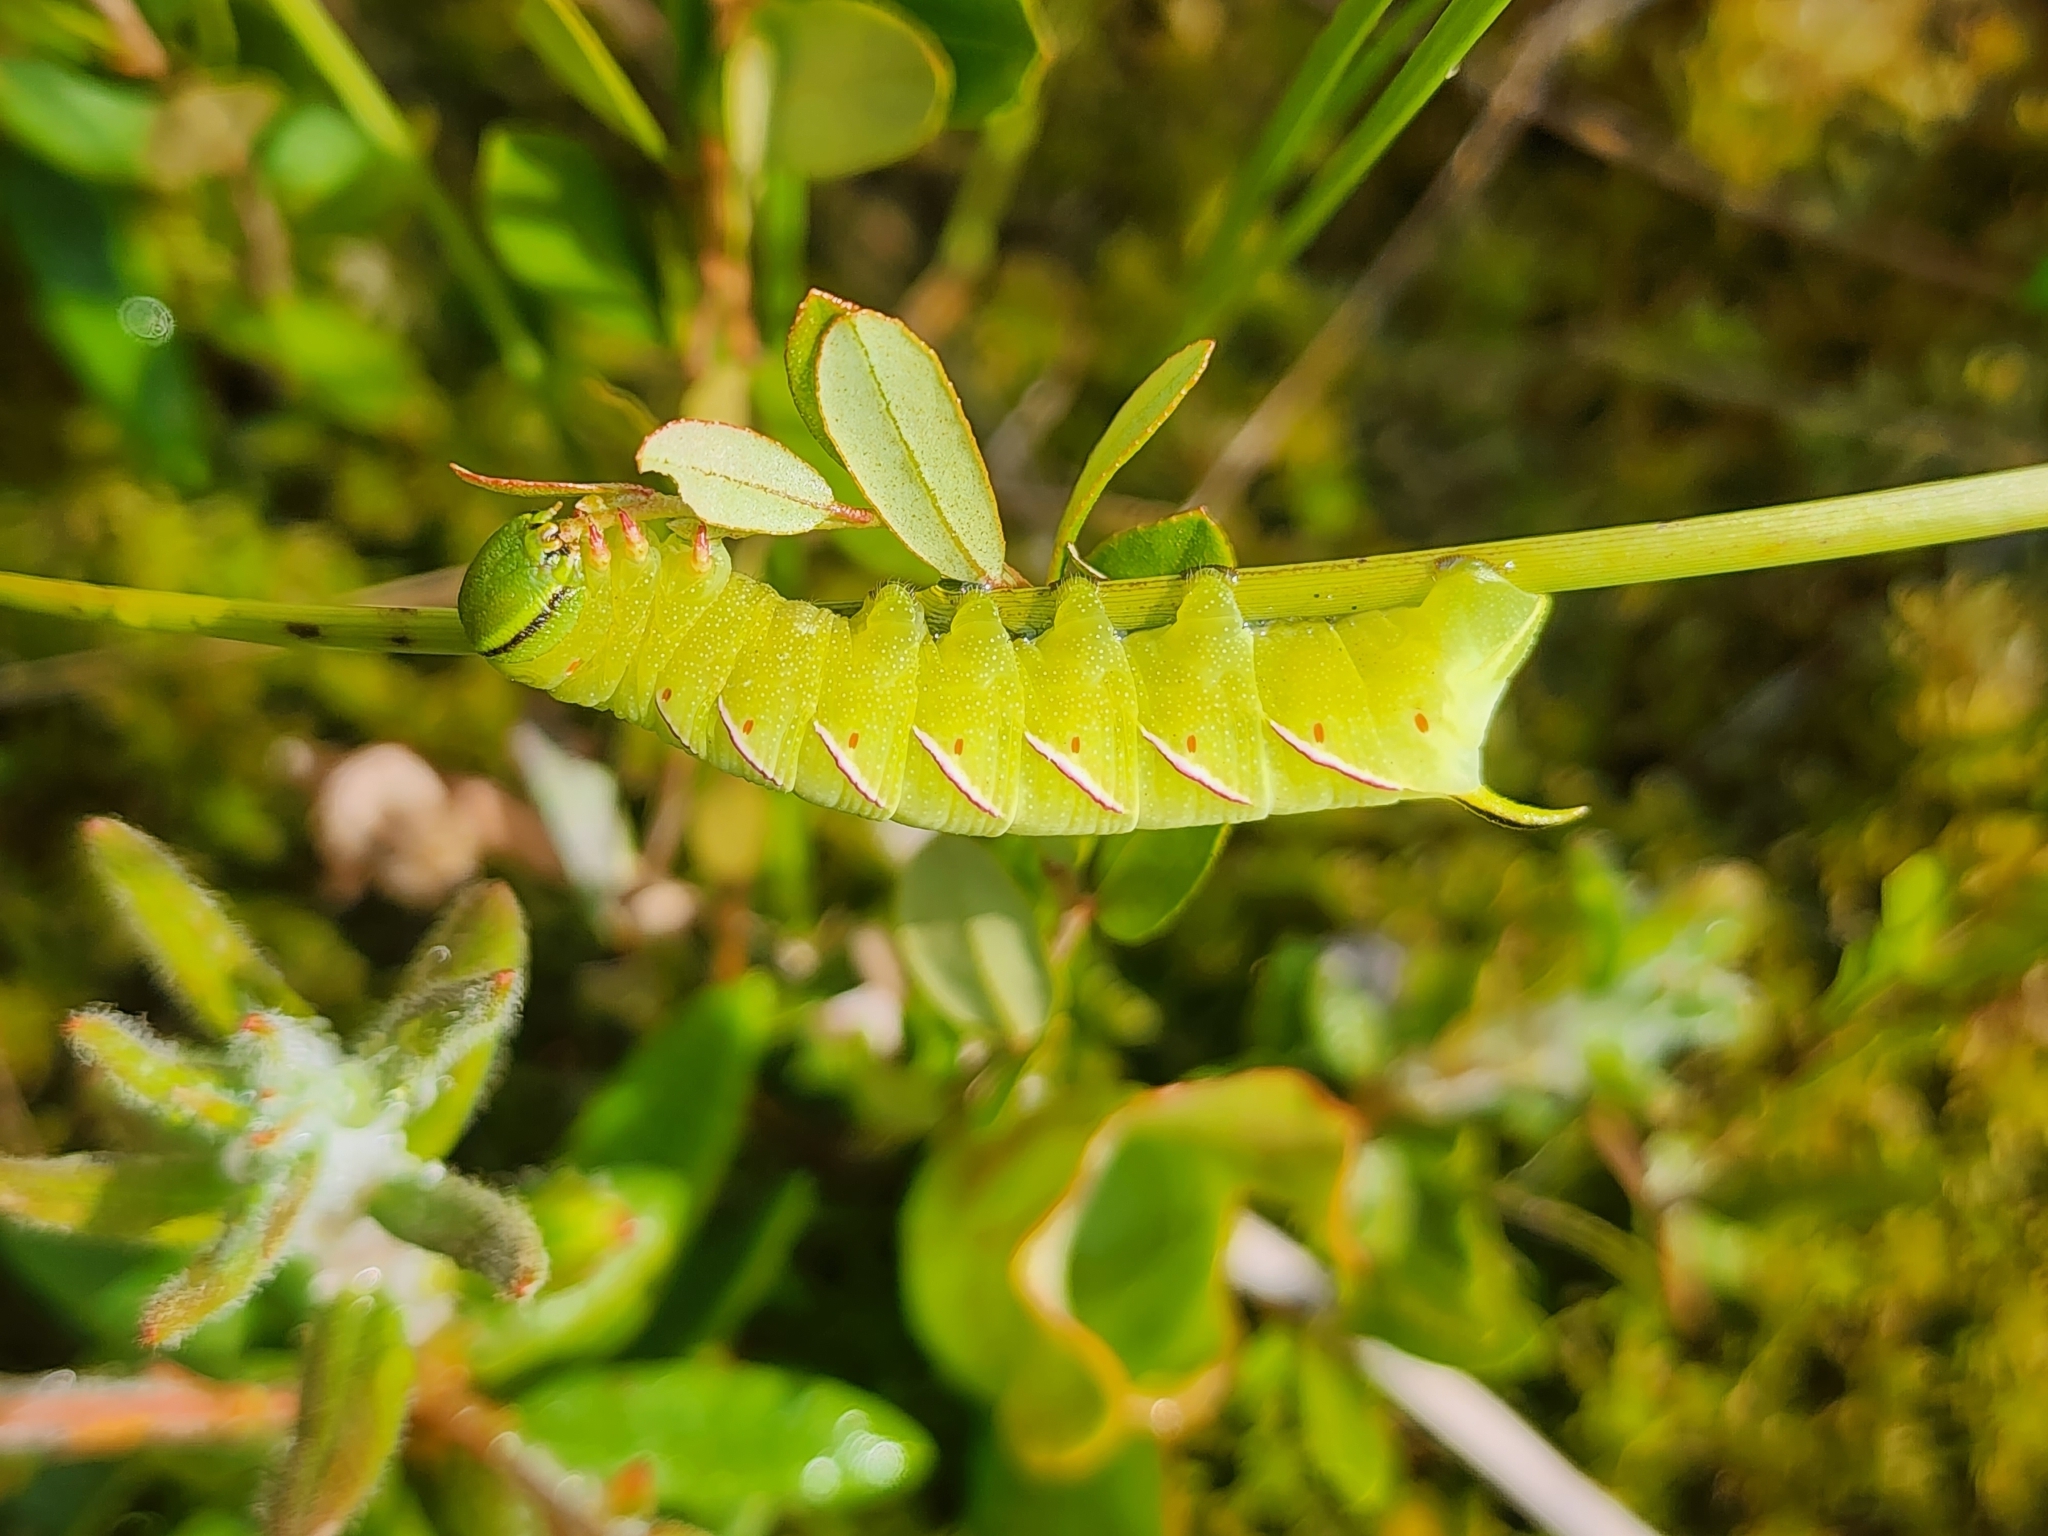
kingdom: Animalia
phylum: Arthropoda
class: Insecta
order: Lepidoptera
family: Sphingidae
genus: Sphinx
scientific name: Sphinx poecila
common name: Northern apple sphinx
